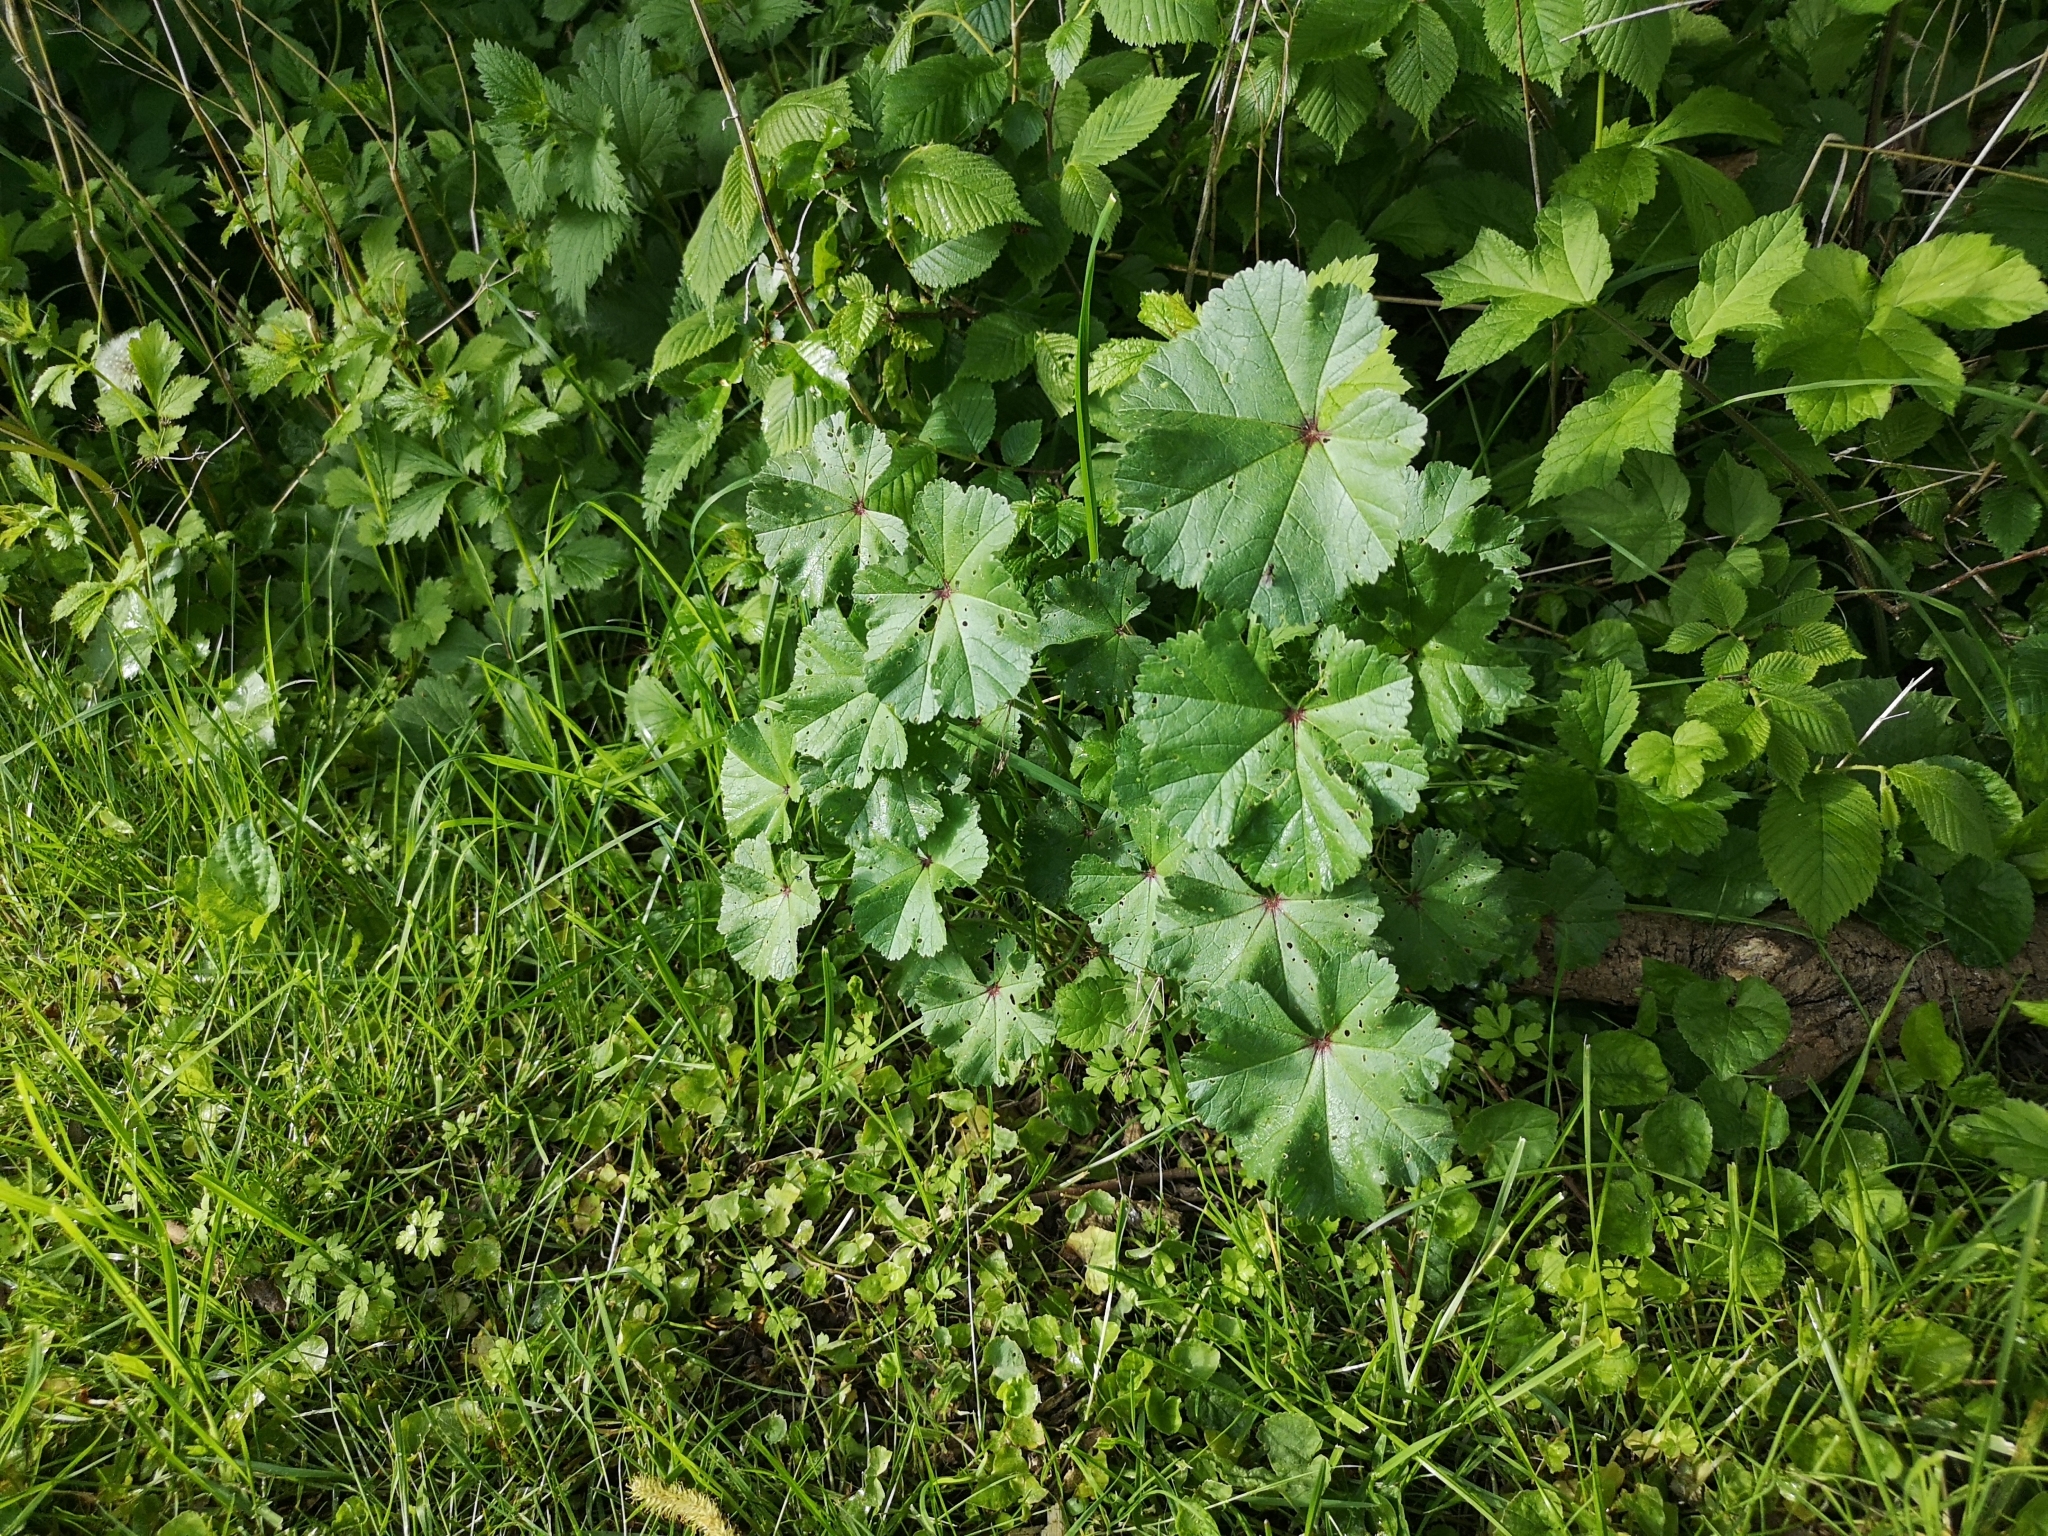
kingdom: Plantae
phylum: Tracheophyta
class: Magnoliopsida
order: Malvales
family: Malvaceae
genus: Malva
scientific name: Malva sylvestris
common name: Common mallow
